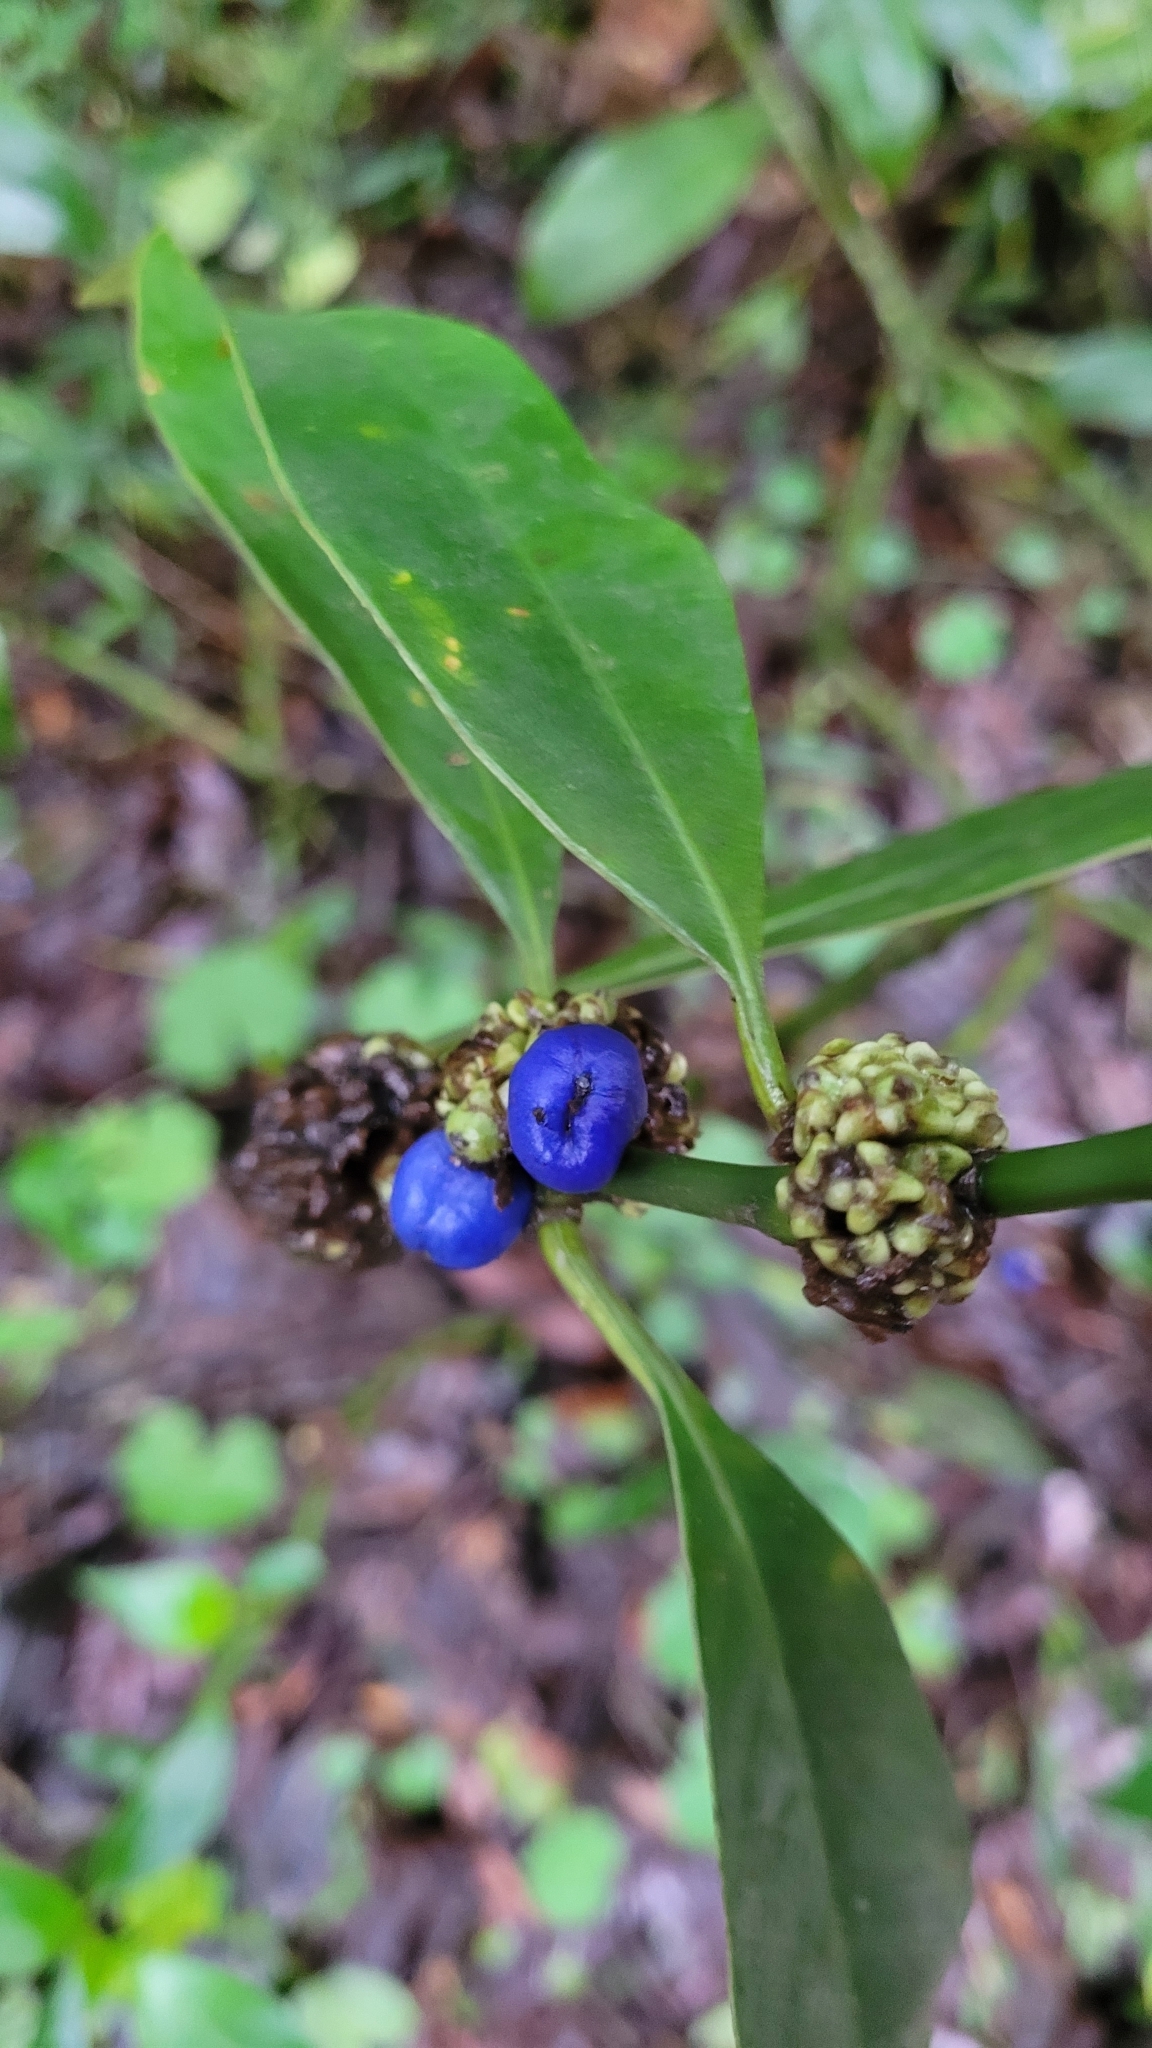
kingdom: Plantae
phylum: Tracheophyta
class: Magnoliopsida
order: Gentianales
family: Rubiaceae
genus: Palicourea
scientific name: Palicourea axillaris
